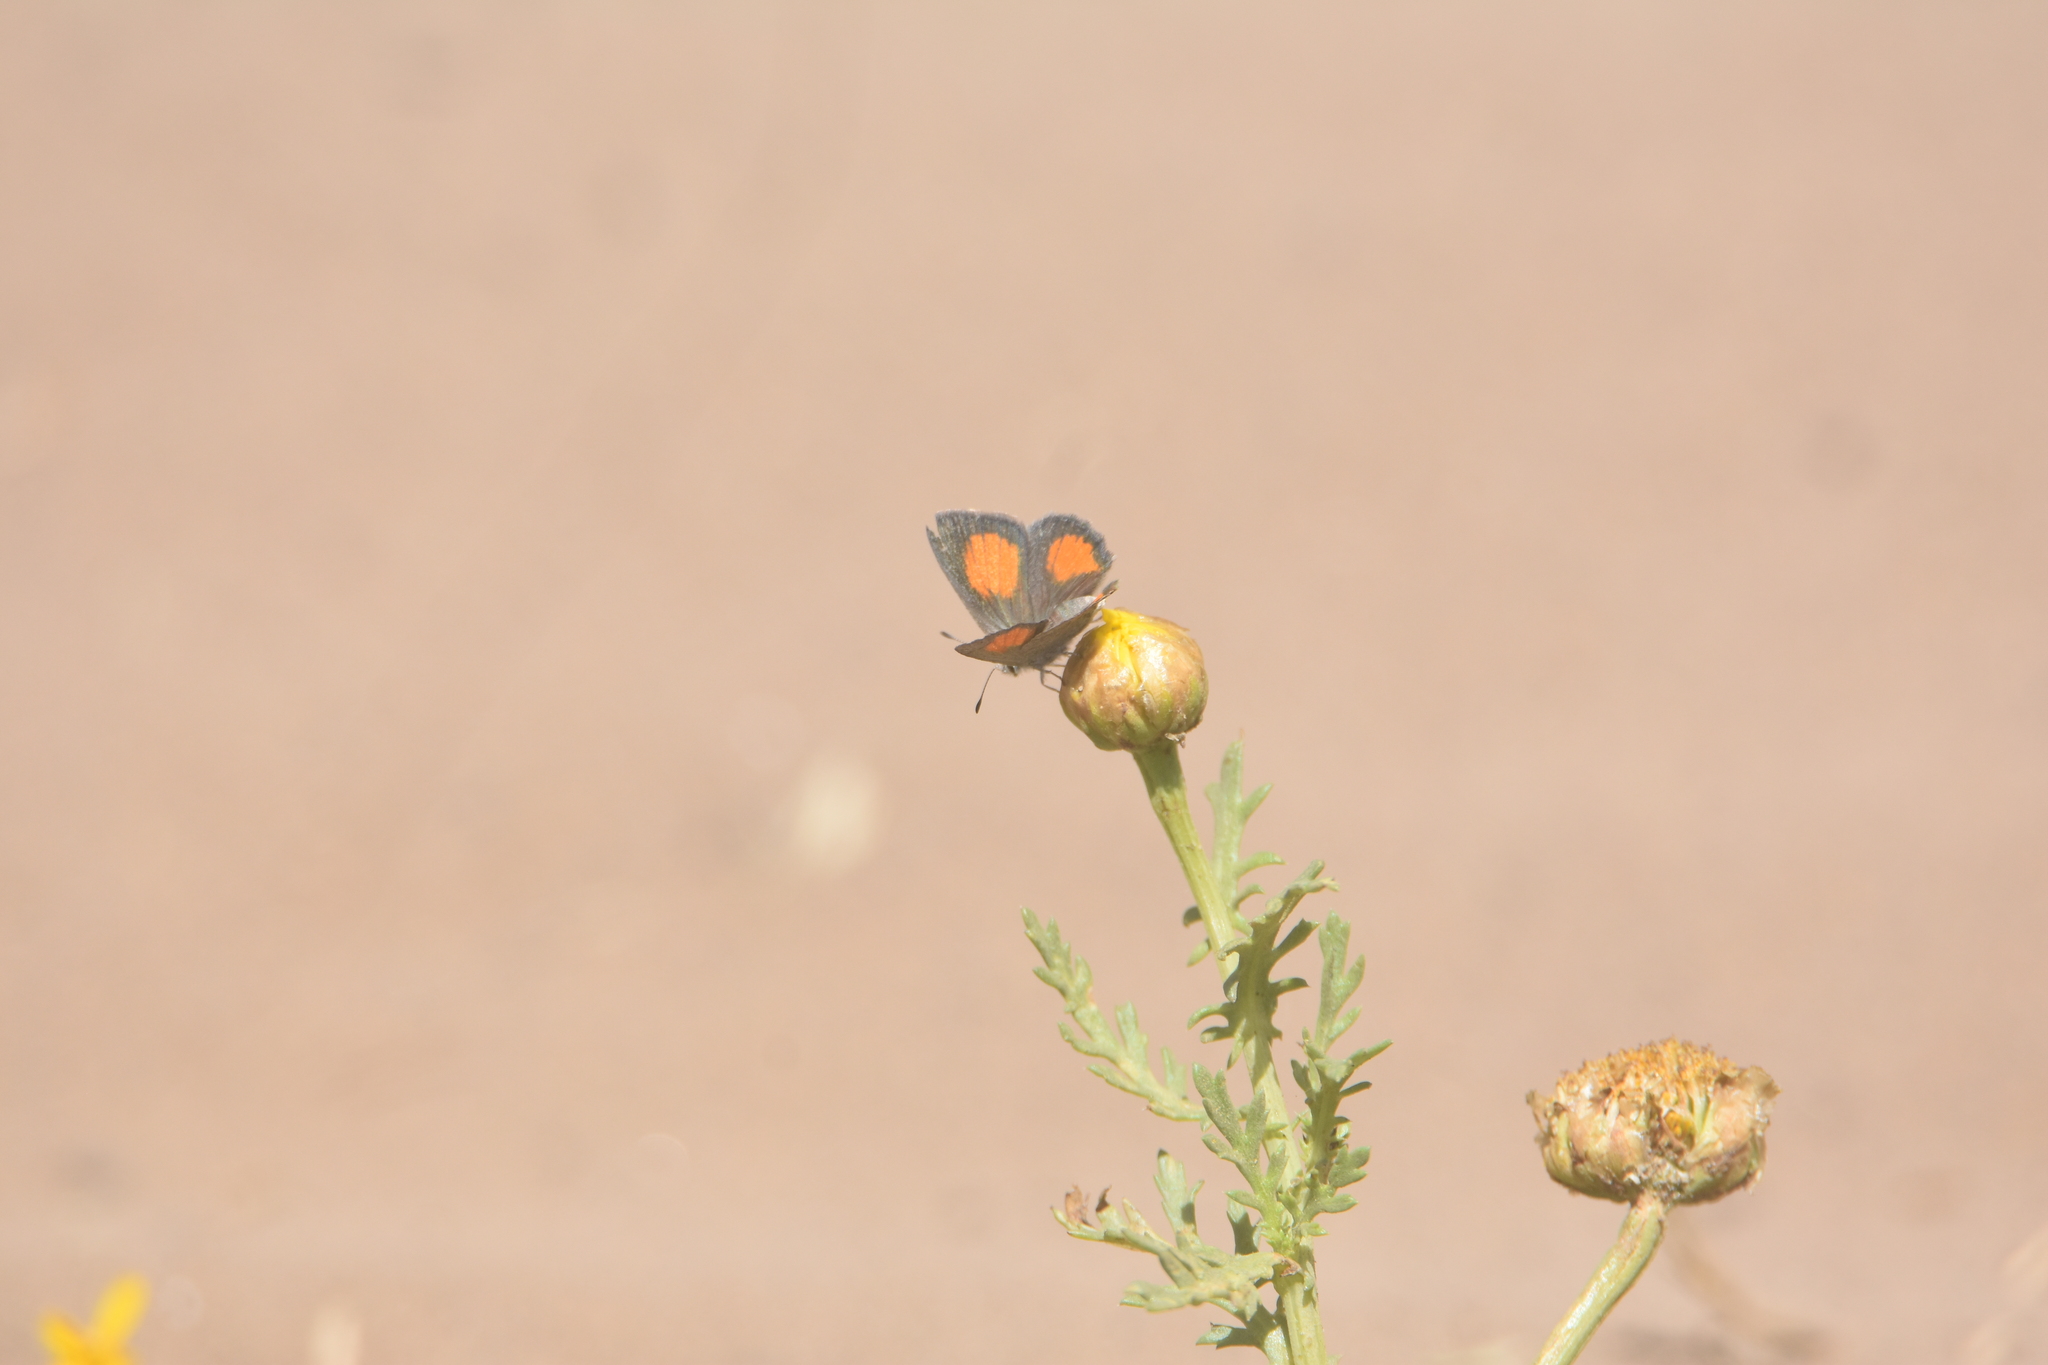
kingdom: Animalia
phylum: Arthropoda
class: Insecta
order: Lepidoptera
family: Lycaenidae
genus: Strymon
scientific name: Strymon
